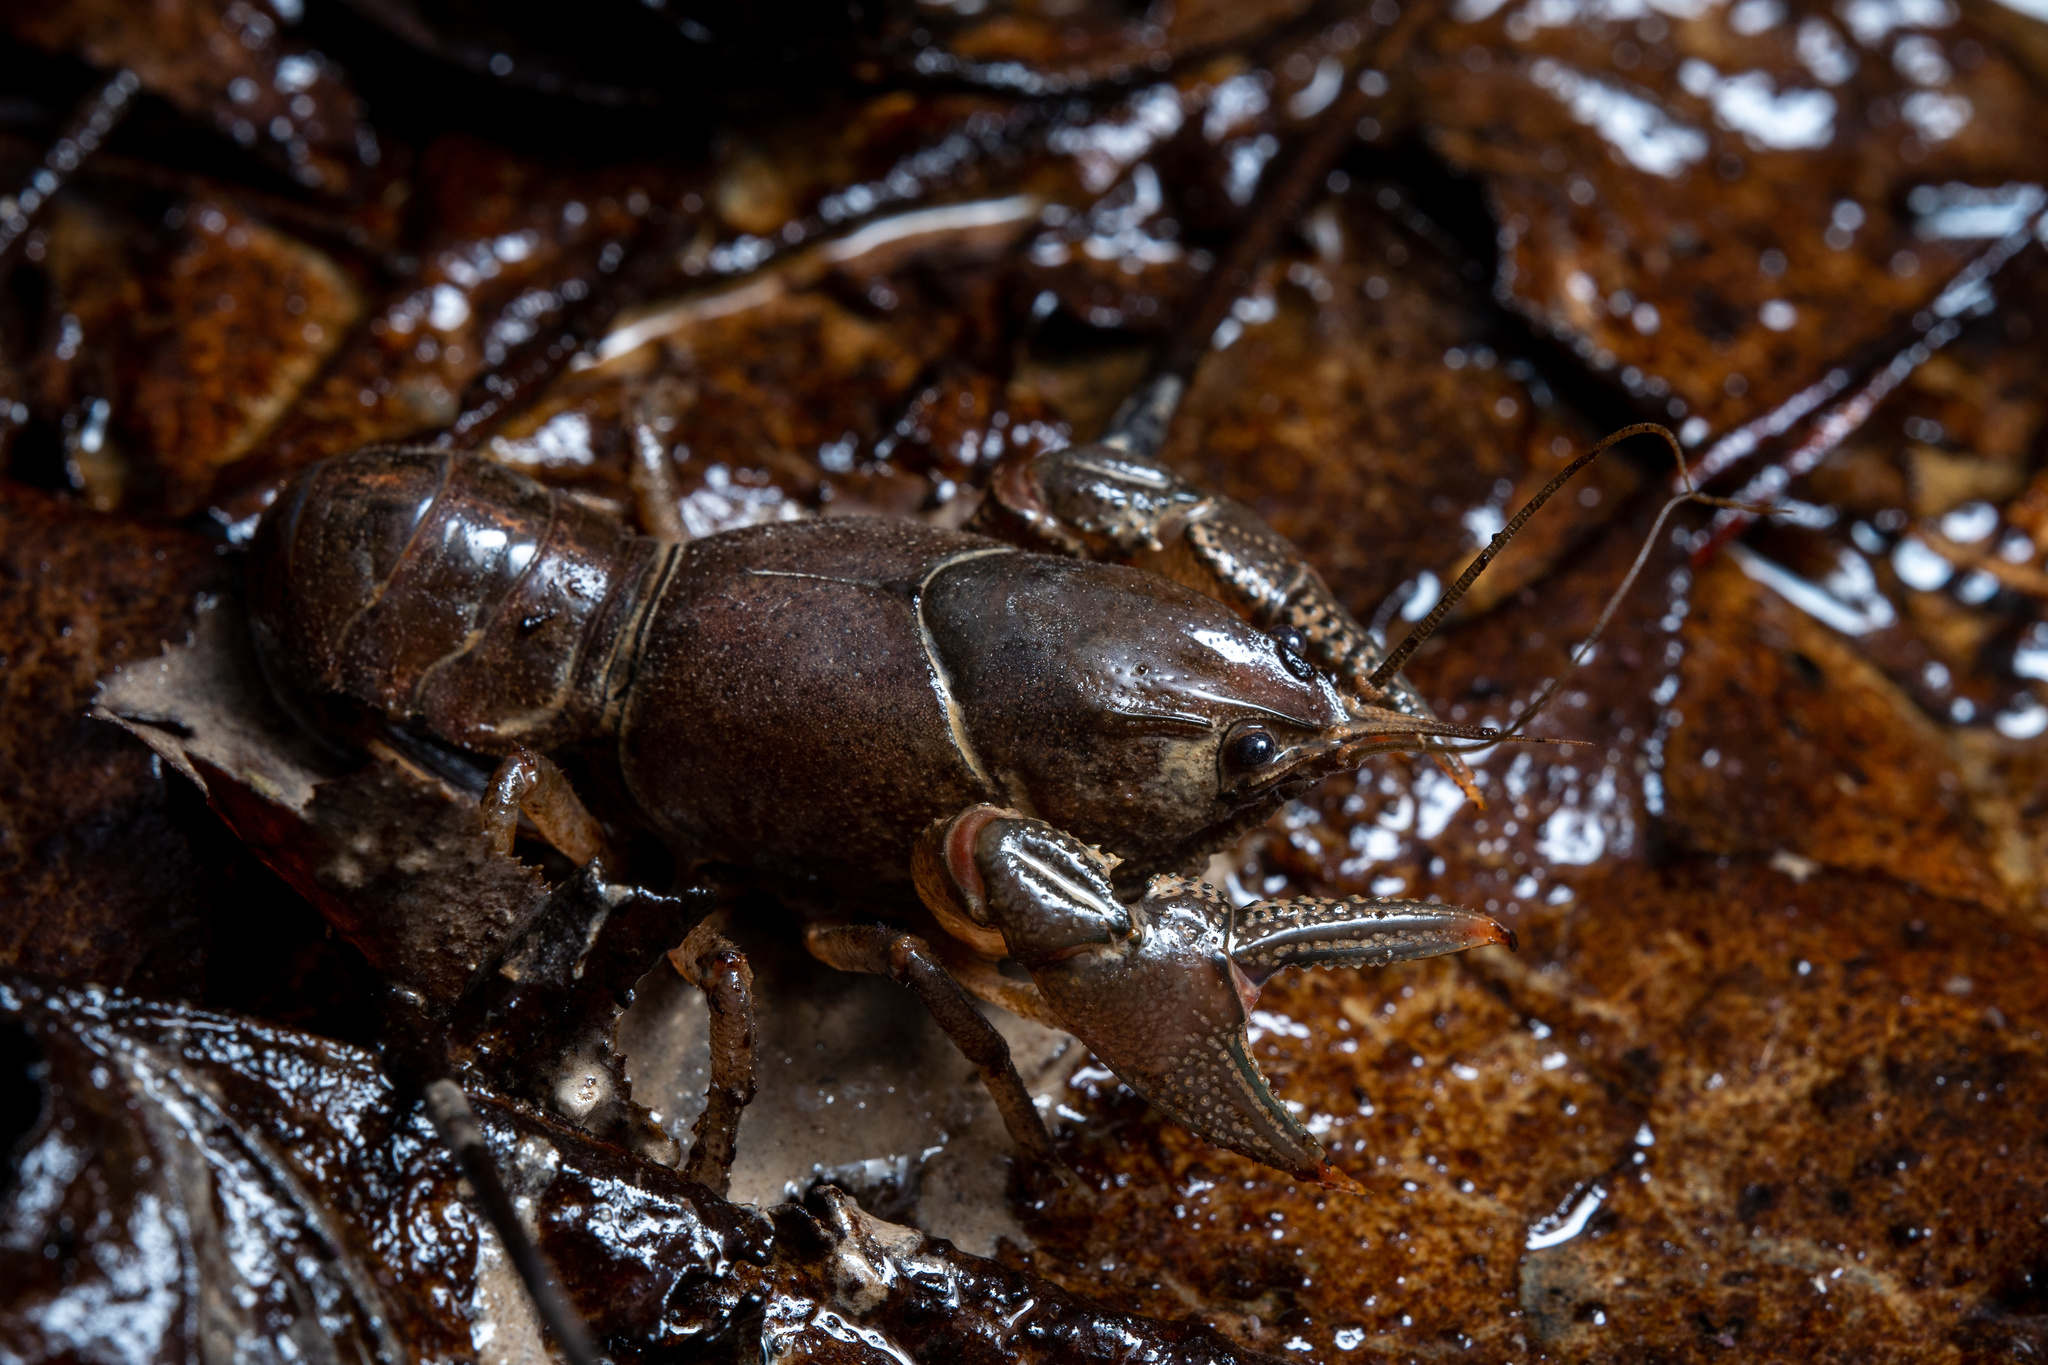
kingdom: Animalia
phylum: Arthropoda
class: Malacostraca
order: Decapoda
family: Cambaridae
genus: Creaserinus
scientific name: Creaserinus fodiens
